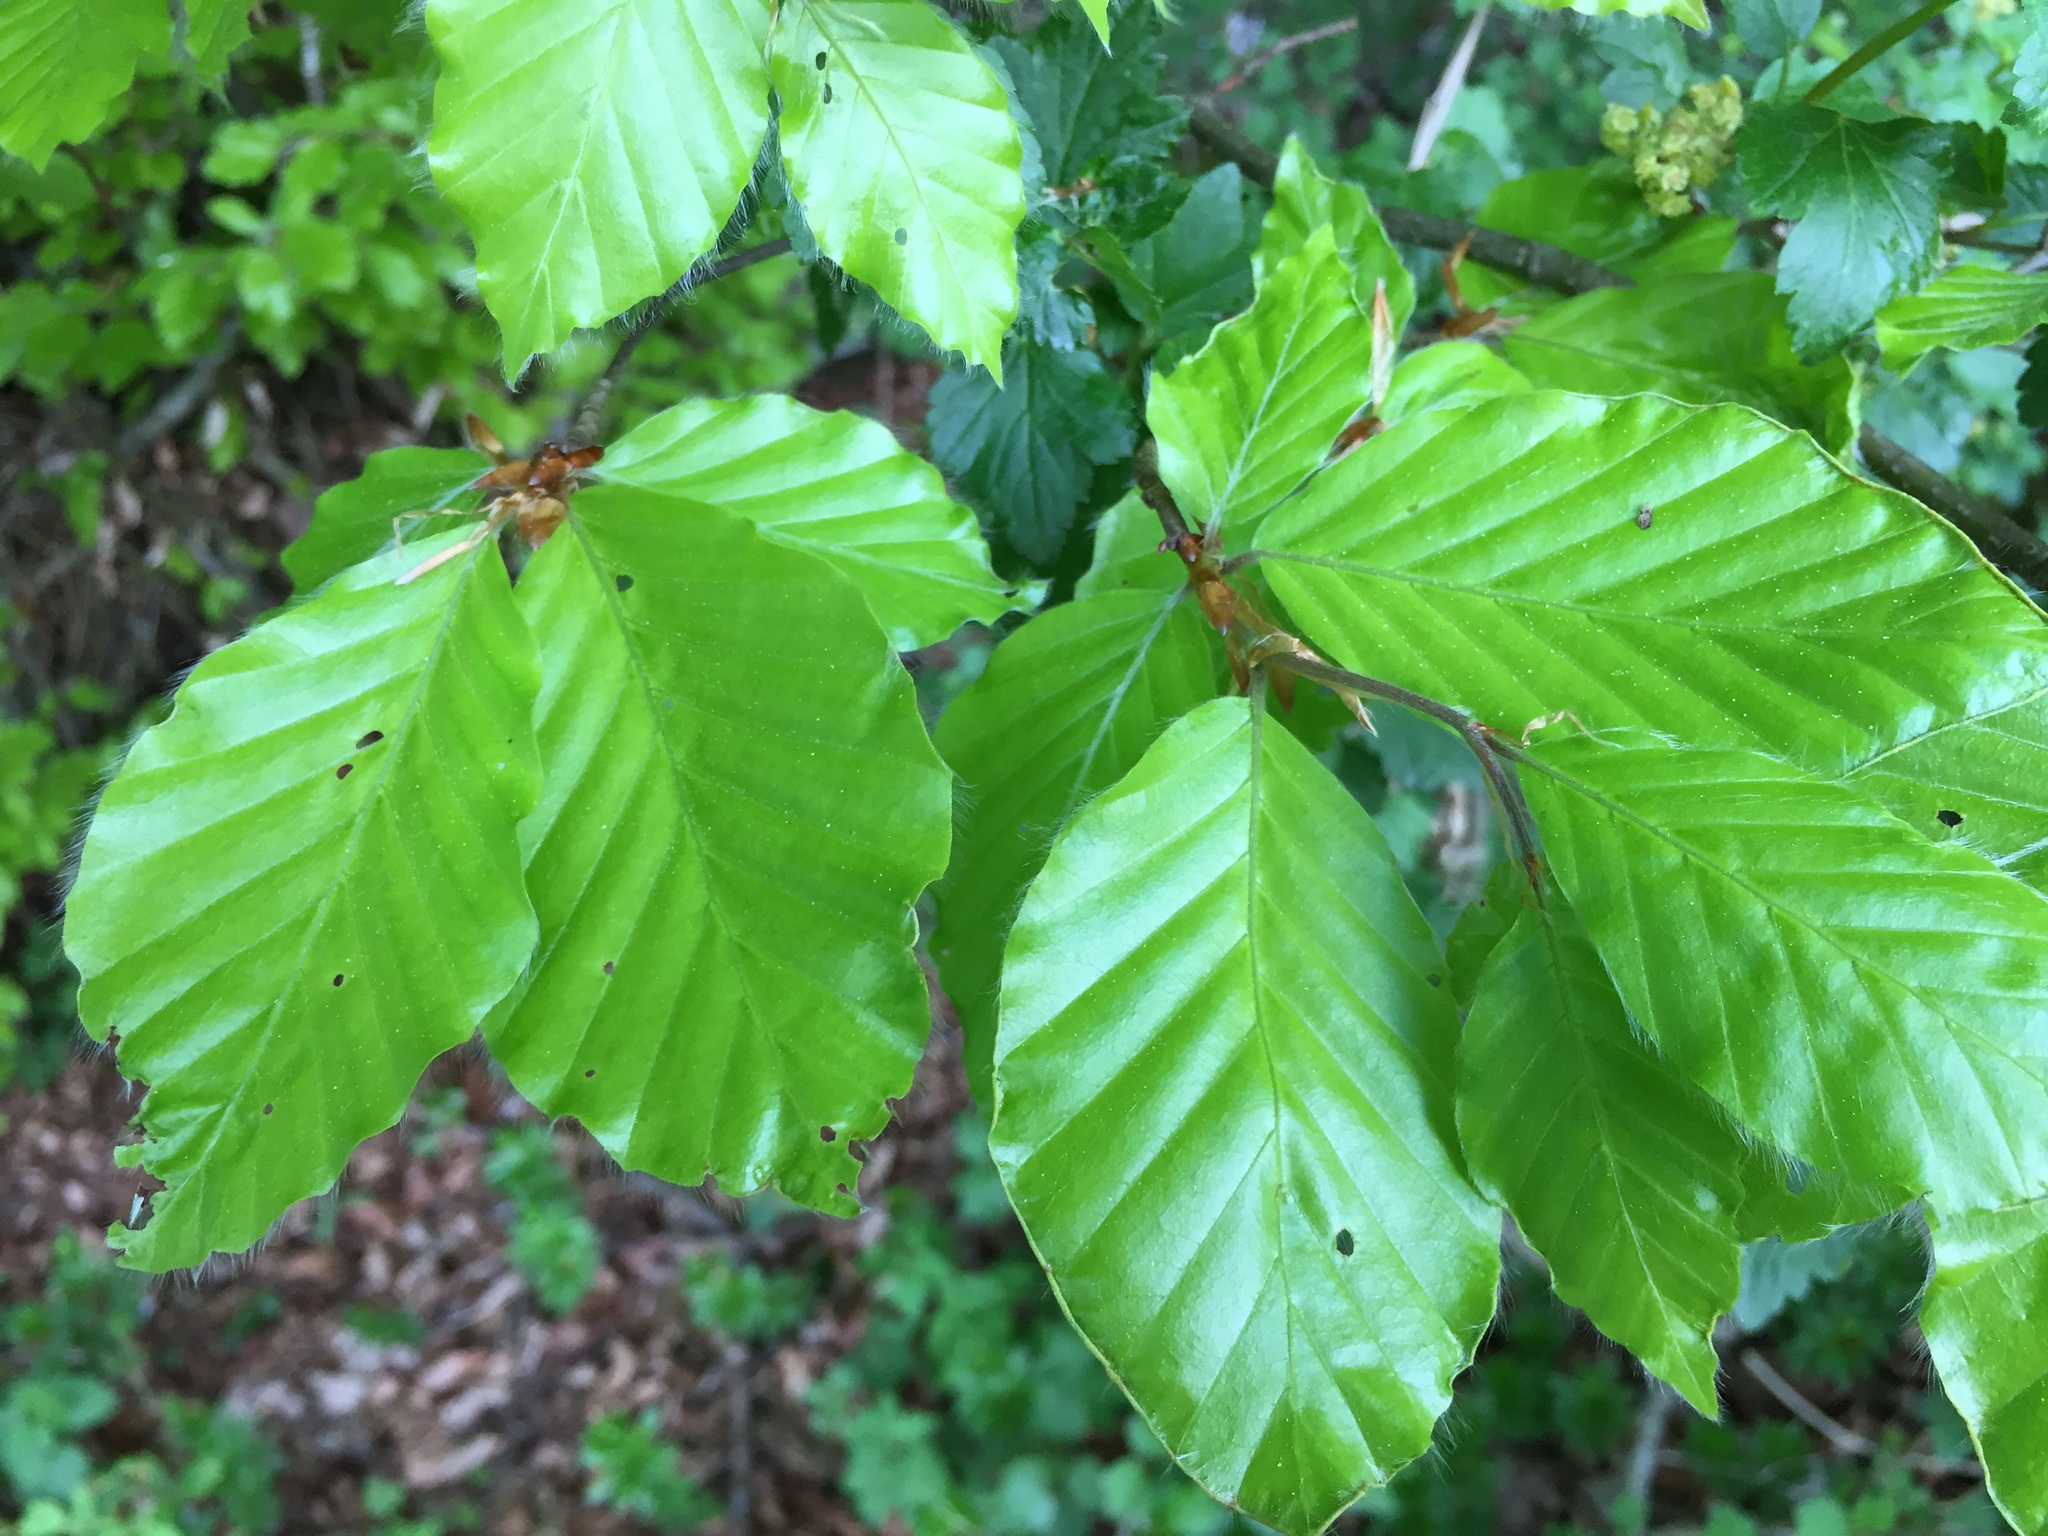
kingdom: Plantae
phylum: Tracheophyta
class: Magnoliopsida
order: Fagales
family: Fagaceae
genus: Fagus
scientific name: Fagus sylvatica
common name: Beech
